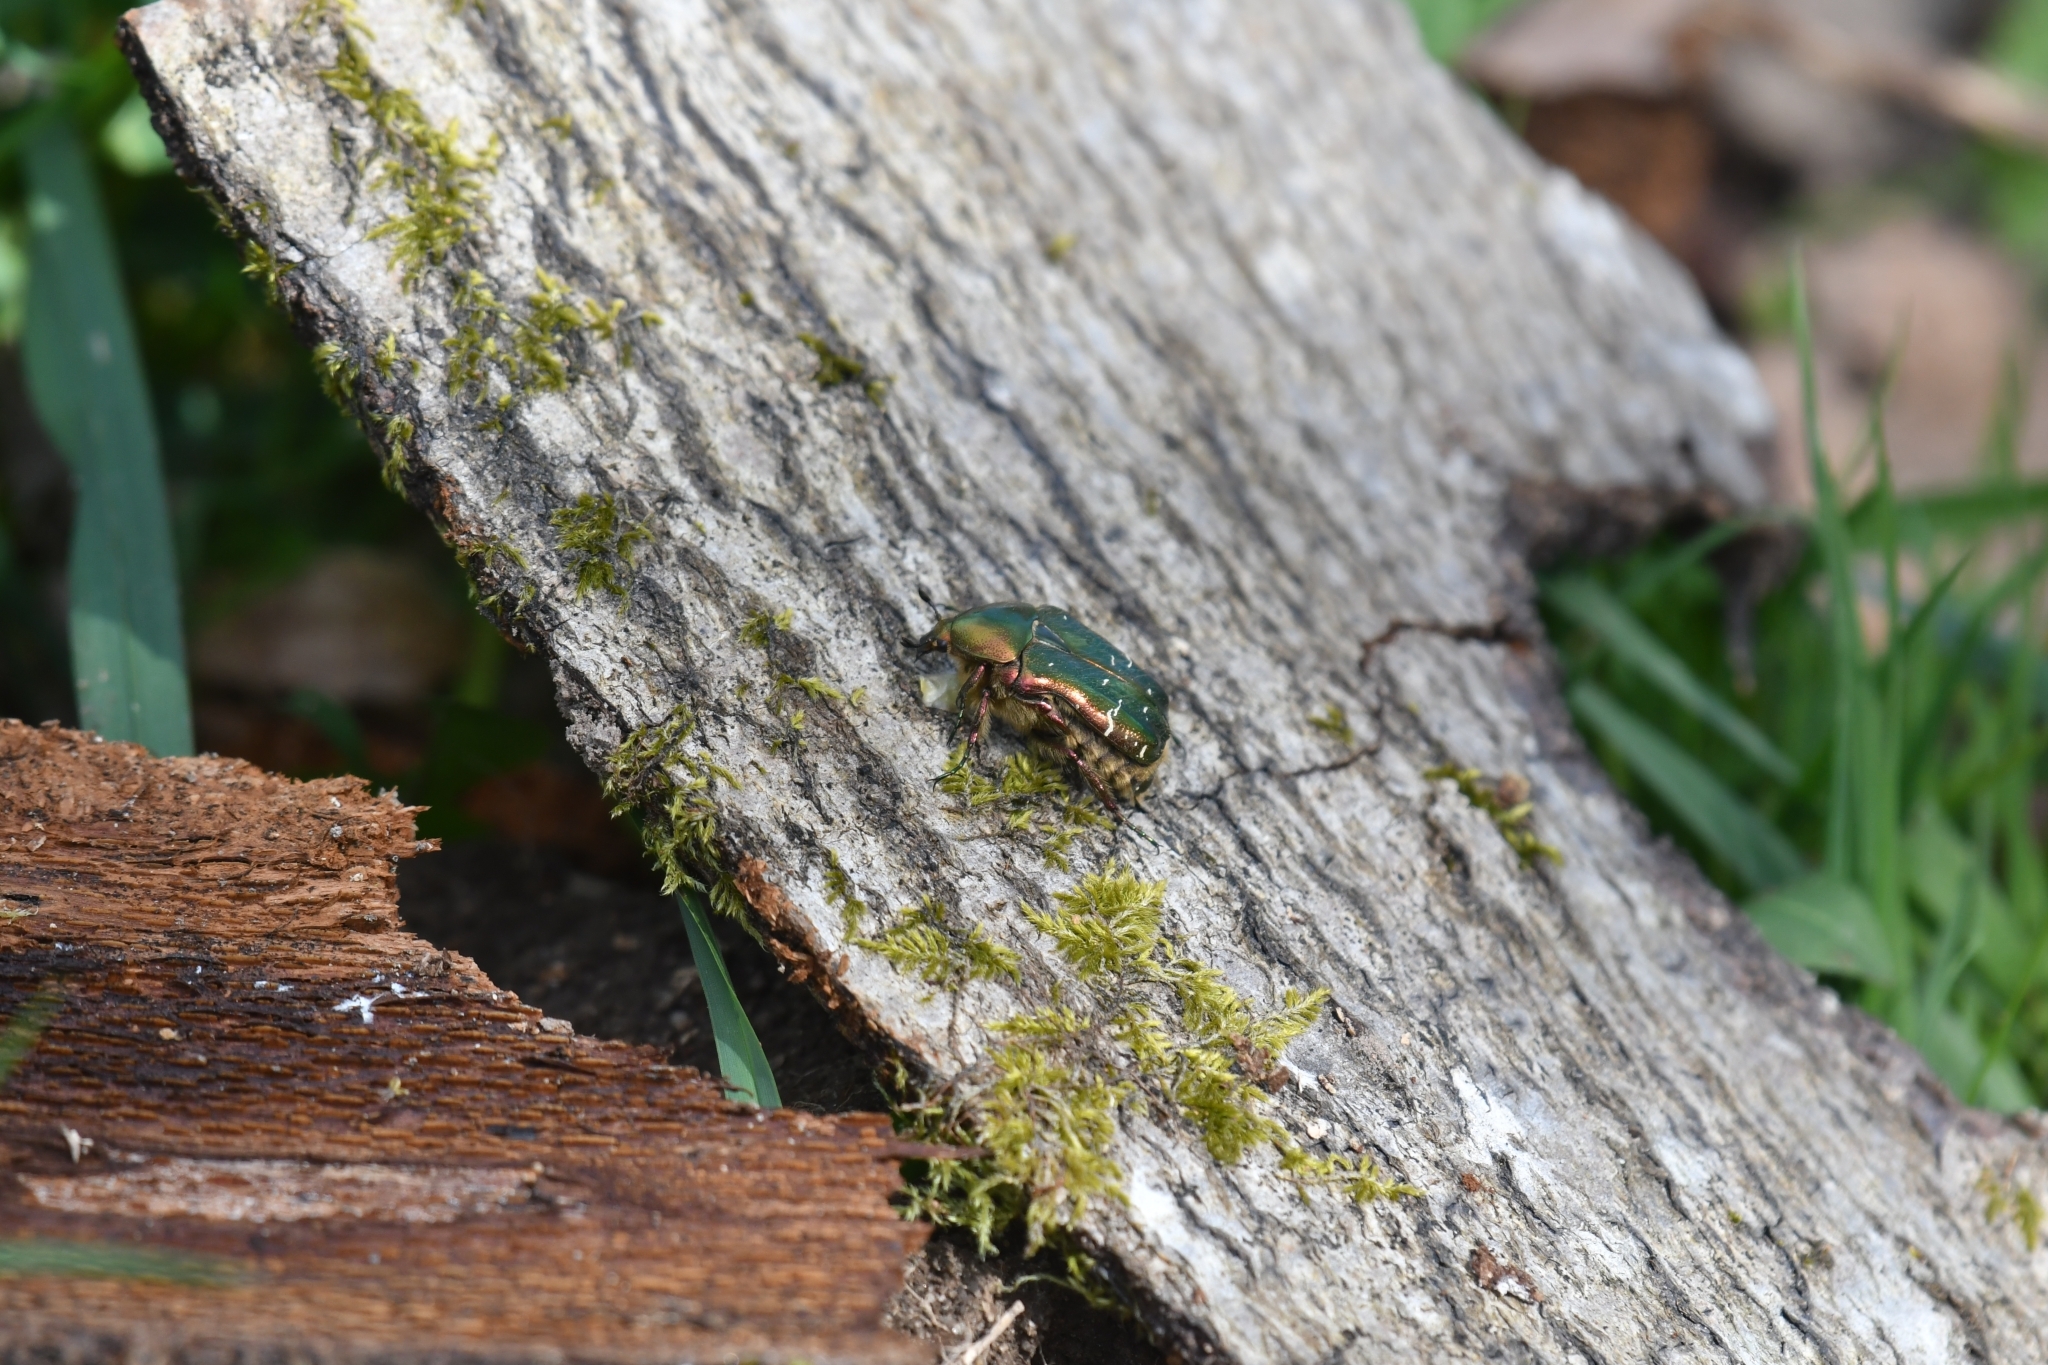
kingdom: Animalia
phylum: Arthropoda
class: Insecta
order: Coleoptera
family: Scarabaeidae
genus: Cetonia
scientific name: Cetonia aurata
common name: Rose chafer
